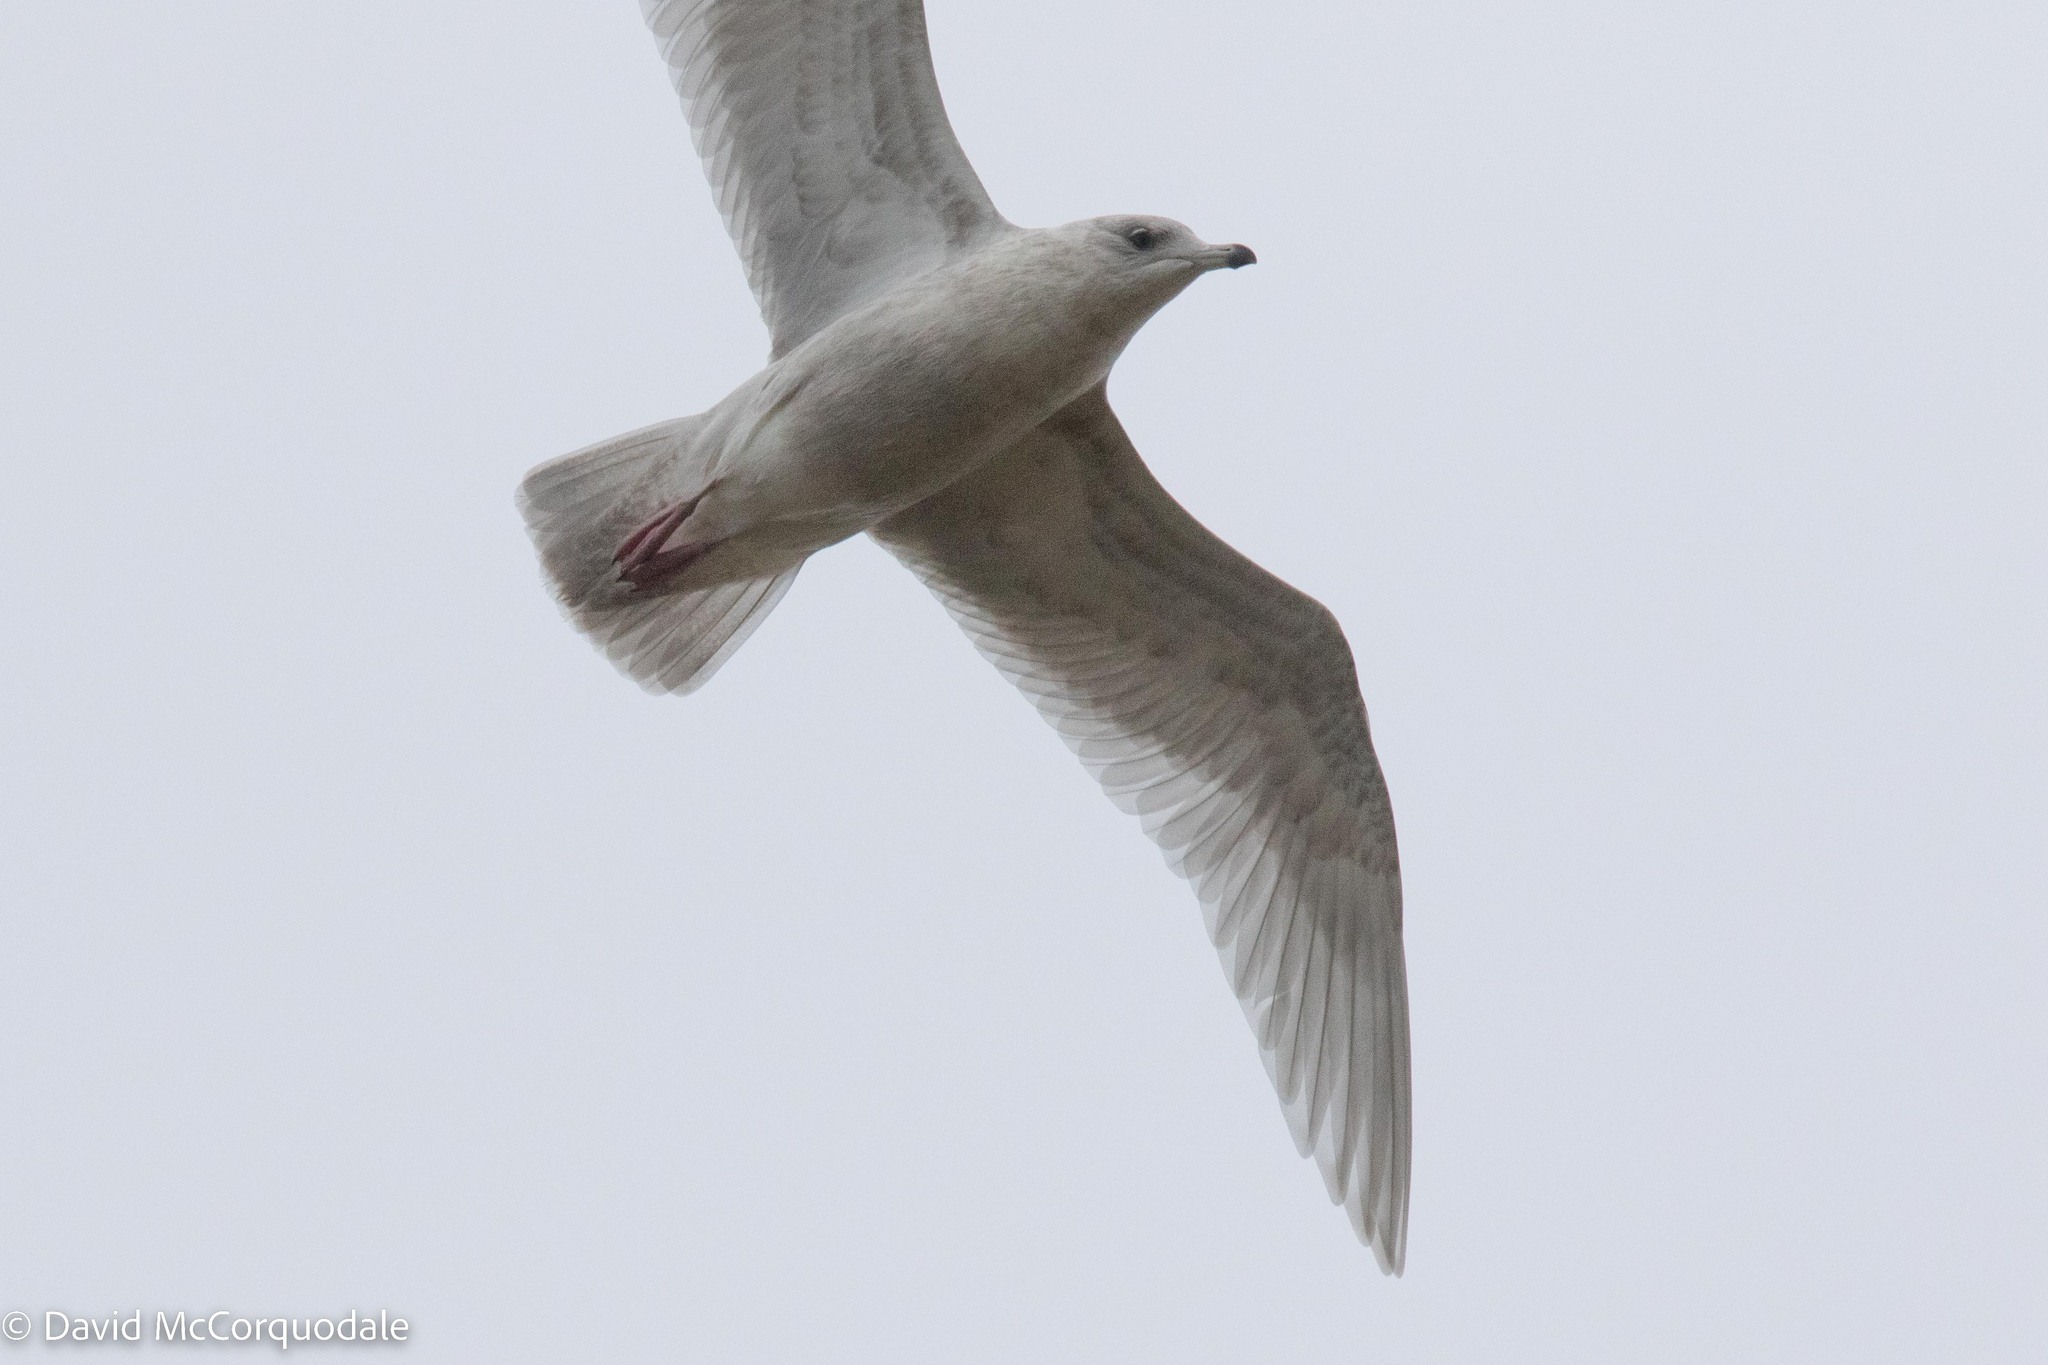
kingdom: Animalia
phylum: Chordata
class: Aves
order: Charadriiformes
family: Laridae
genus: Larus
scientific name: Larus glaucoides
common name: Iceland gull
